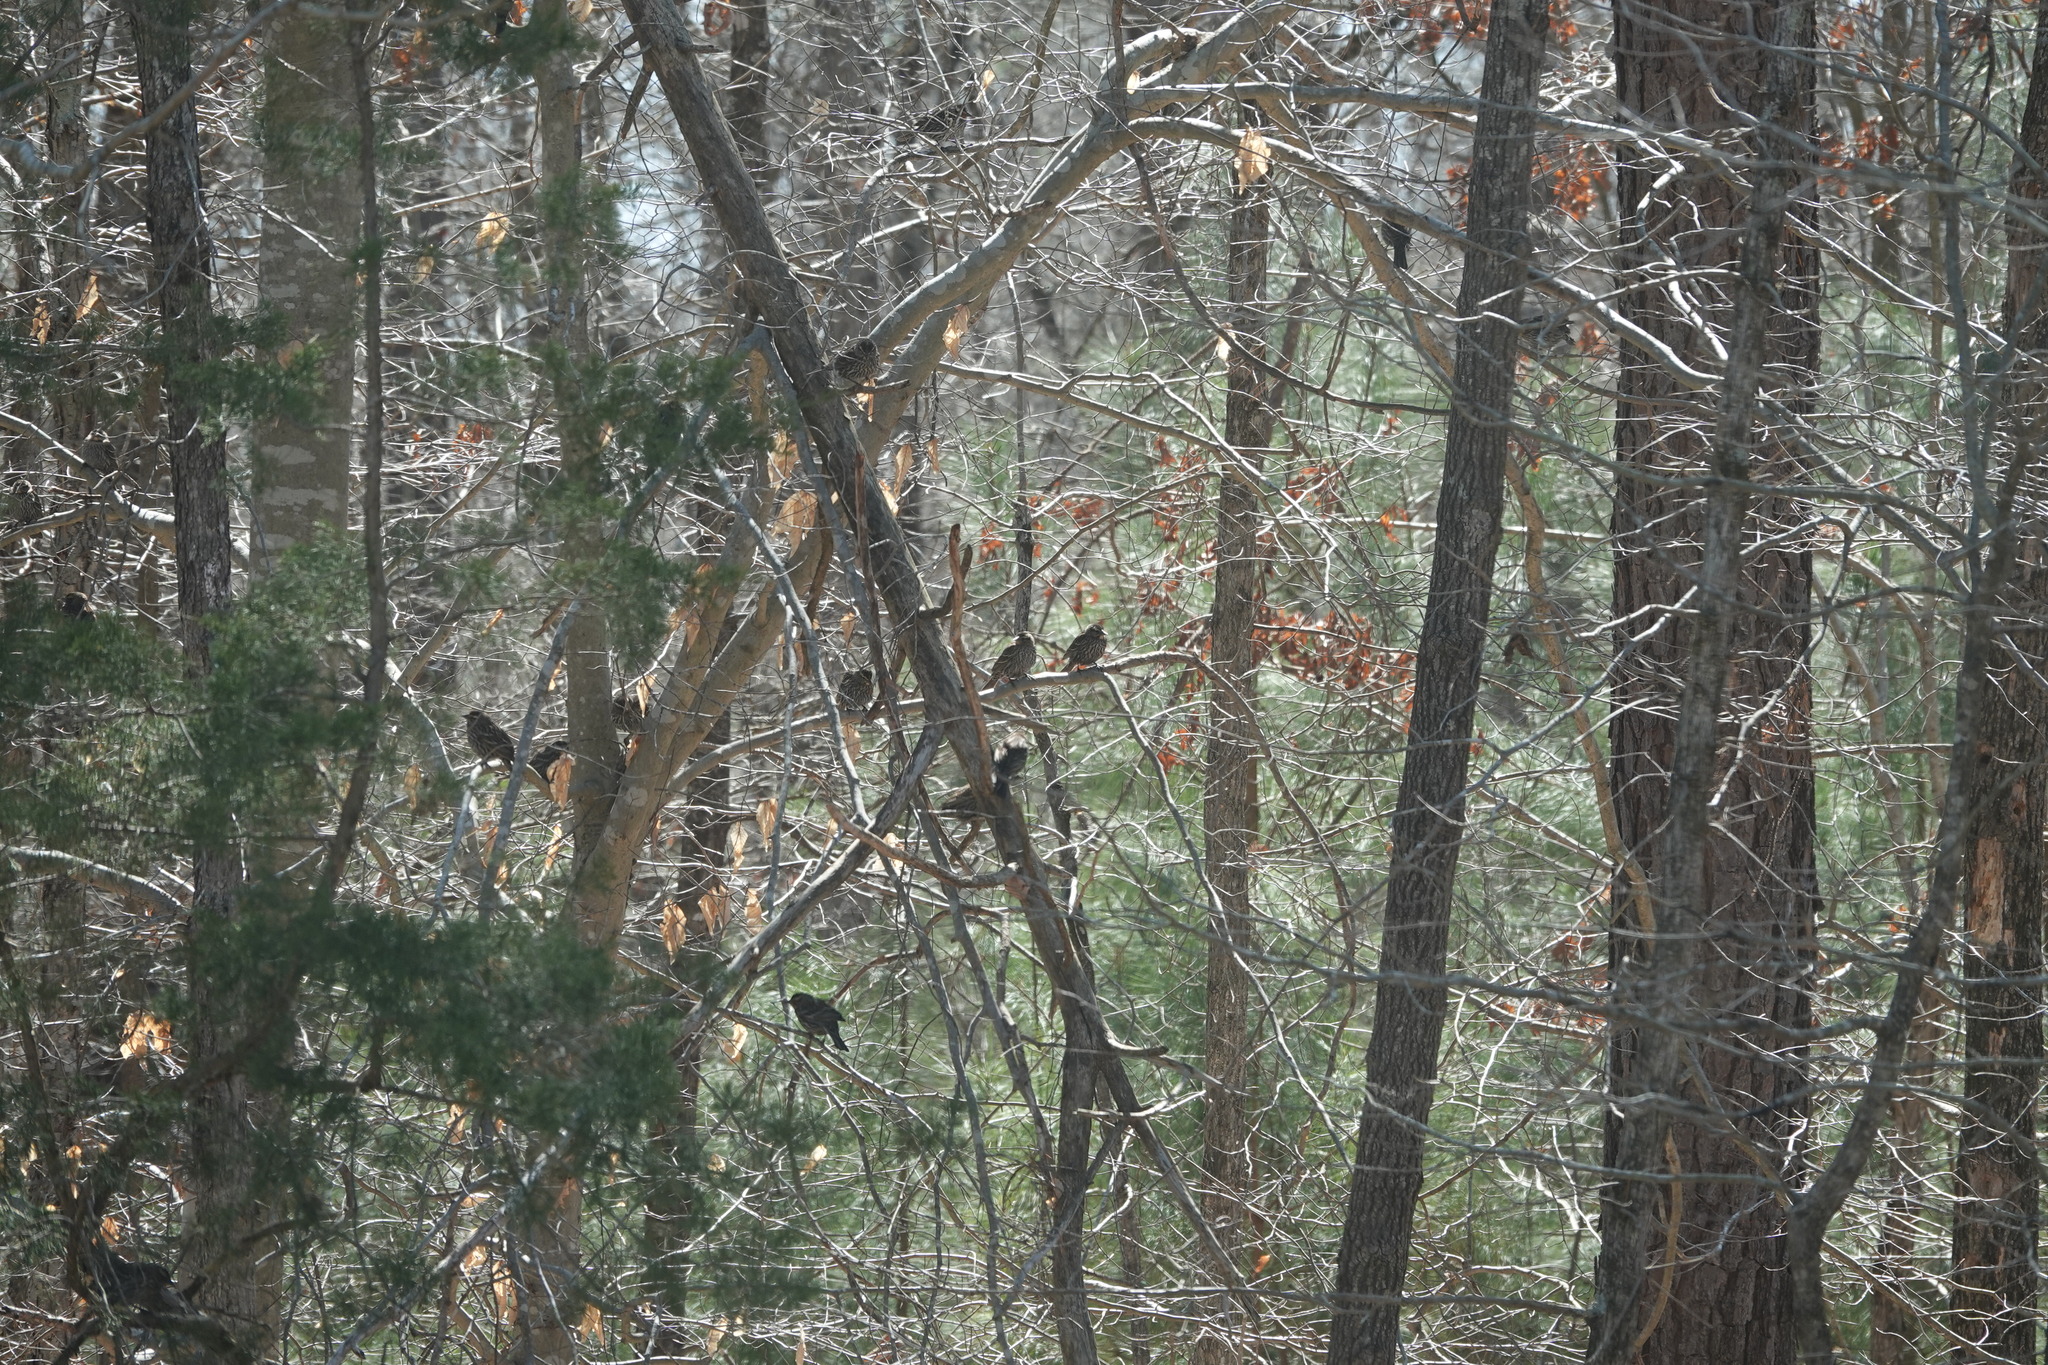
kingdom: Animalia
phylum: Chordata
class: Aves
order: Passeriformes
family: Icteridae
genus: Agelaius
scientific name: Agelaius phoeniceus
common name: Red-winged blackbird
